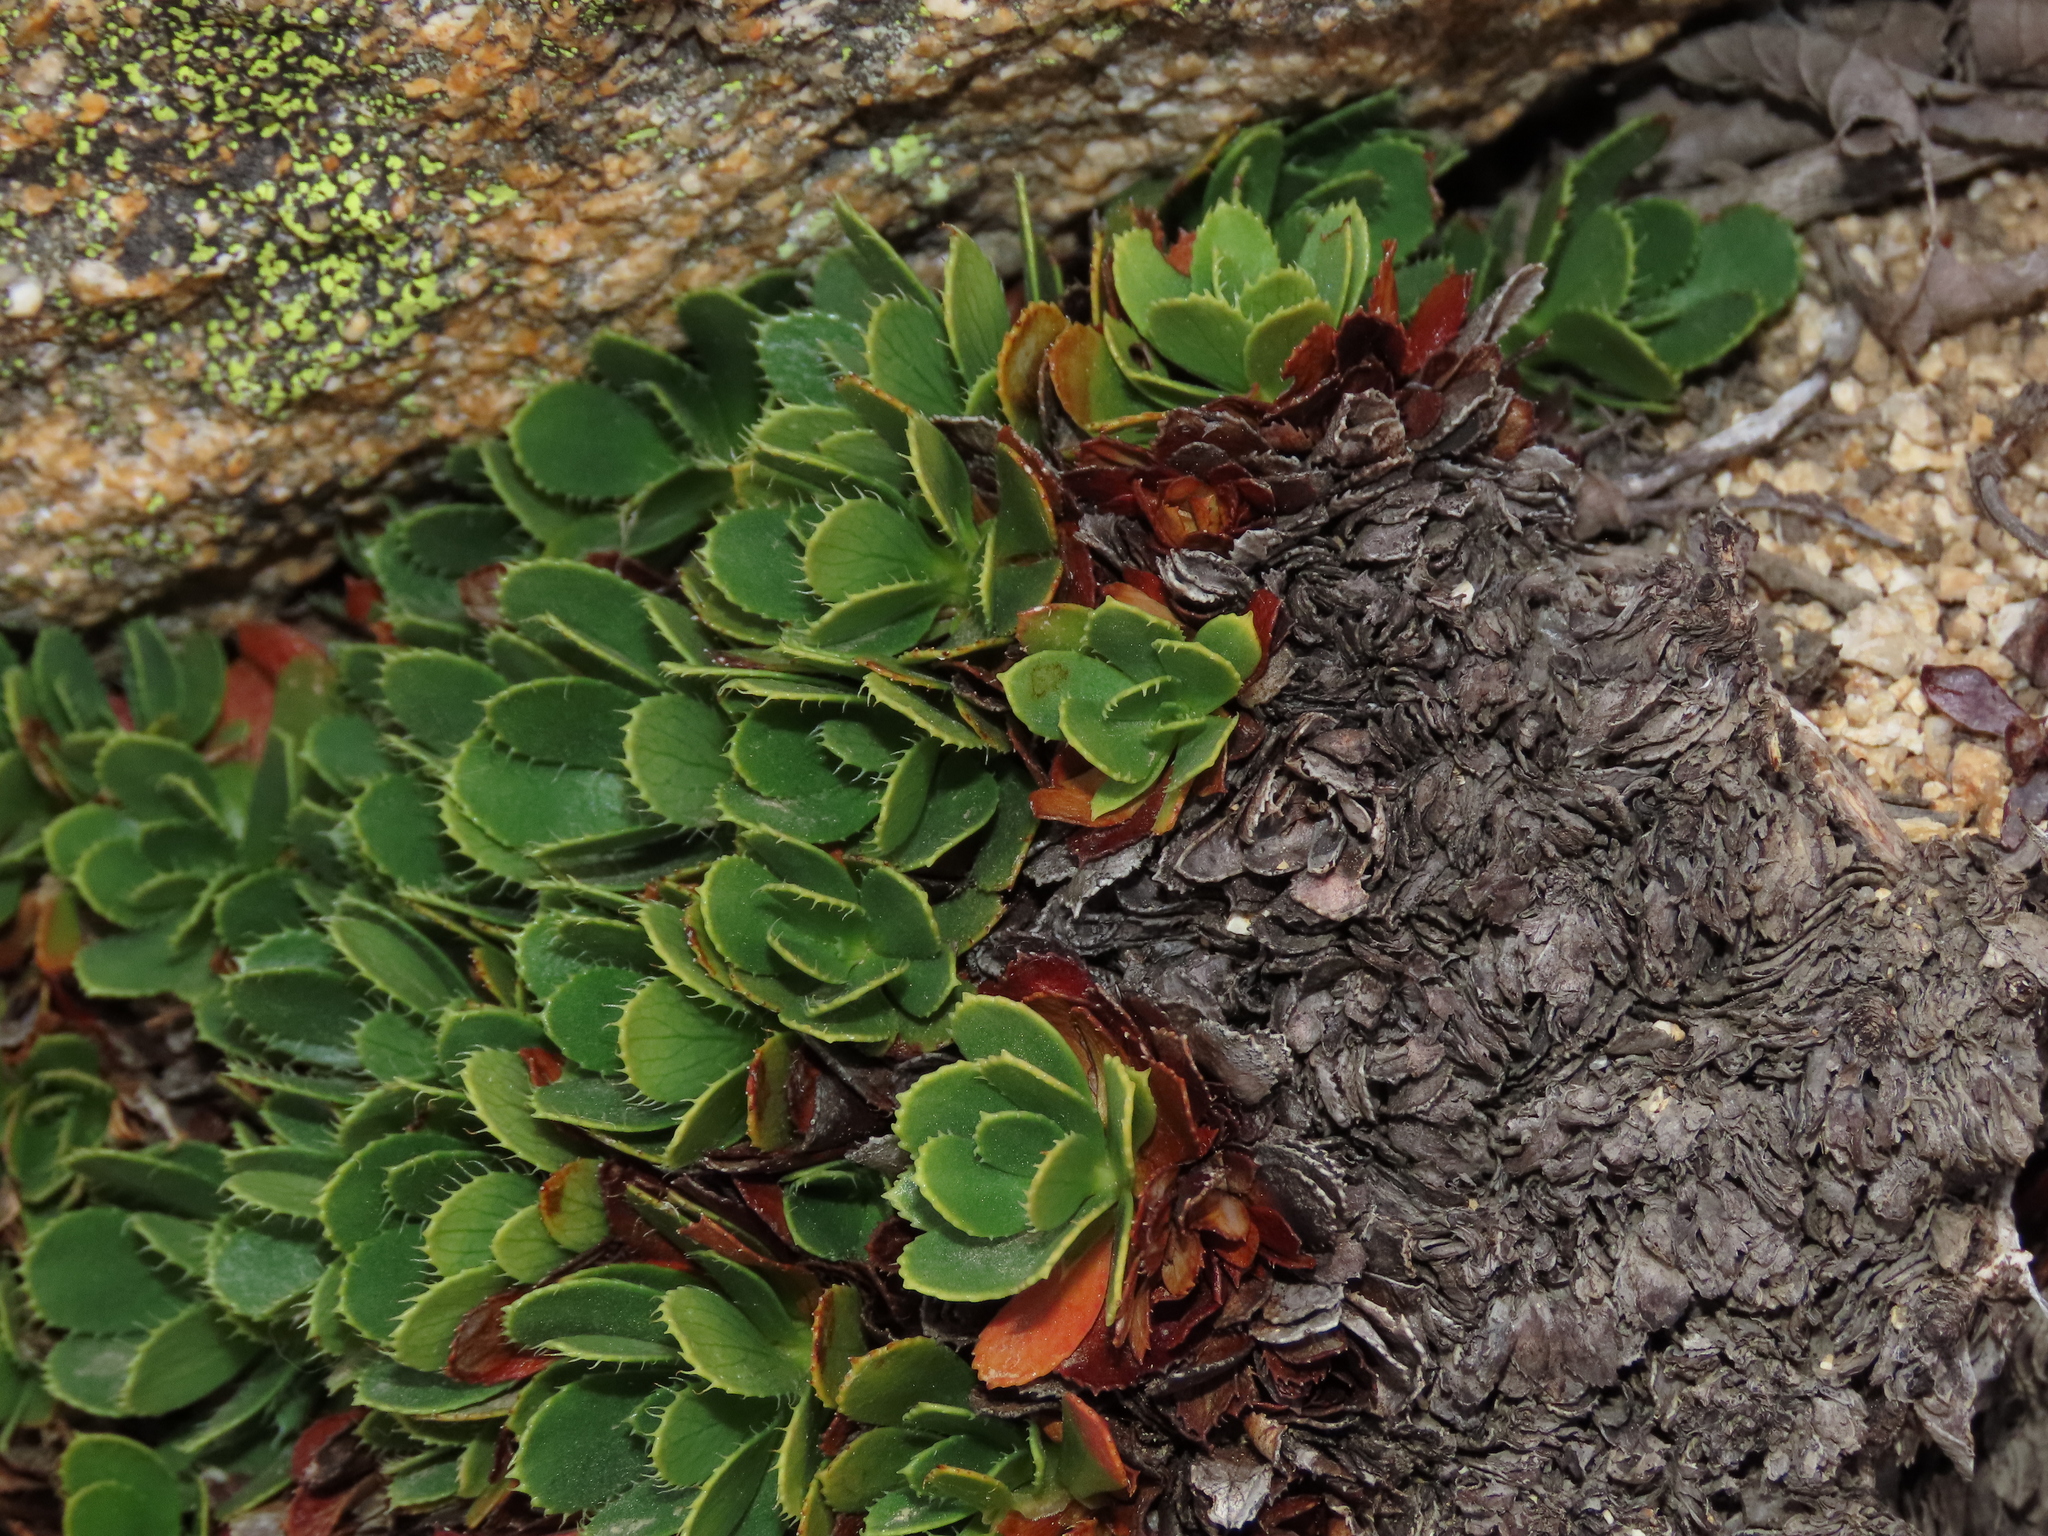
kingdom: Plantae
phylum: Tracheophyta
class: Magnoliopsida
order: Escalloniales
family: Escalloniaceae
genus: Rayenia
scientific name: Rayenia malalcurensis
